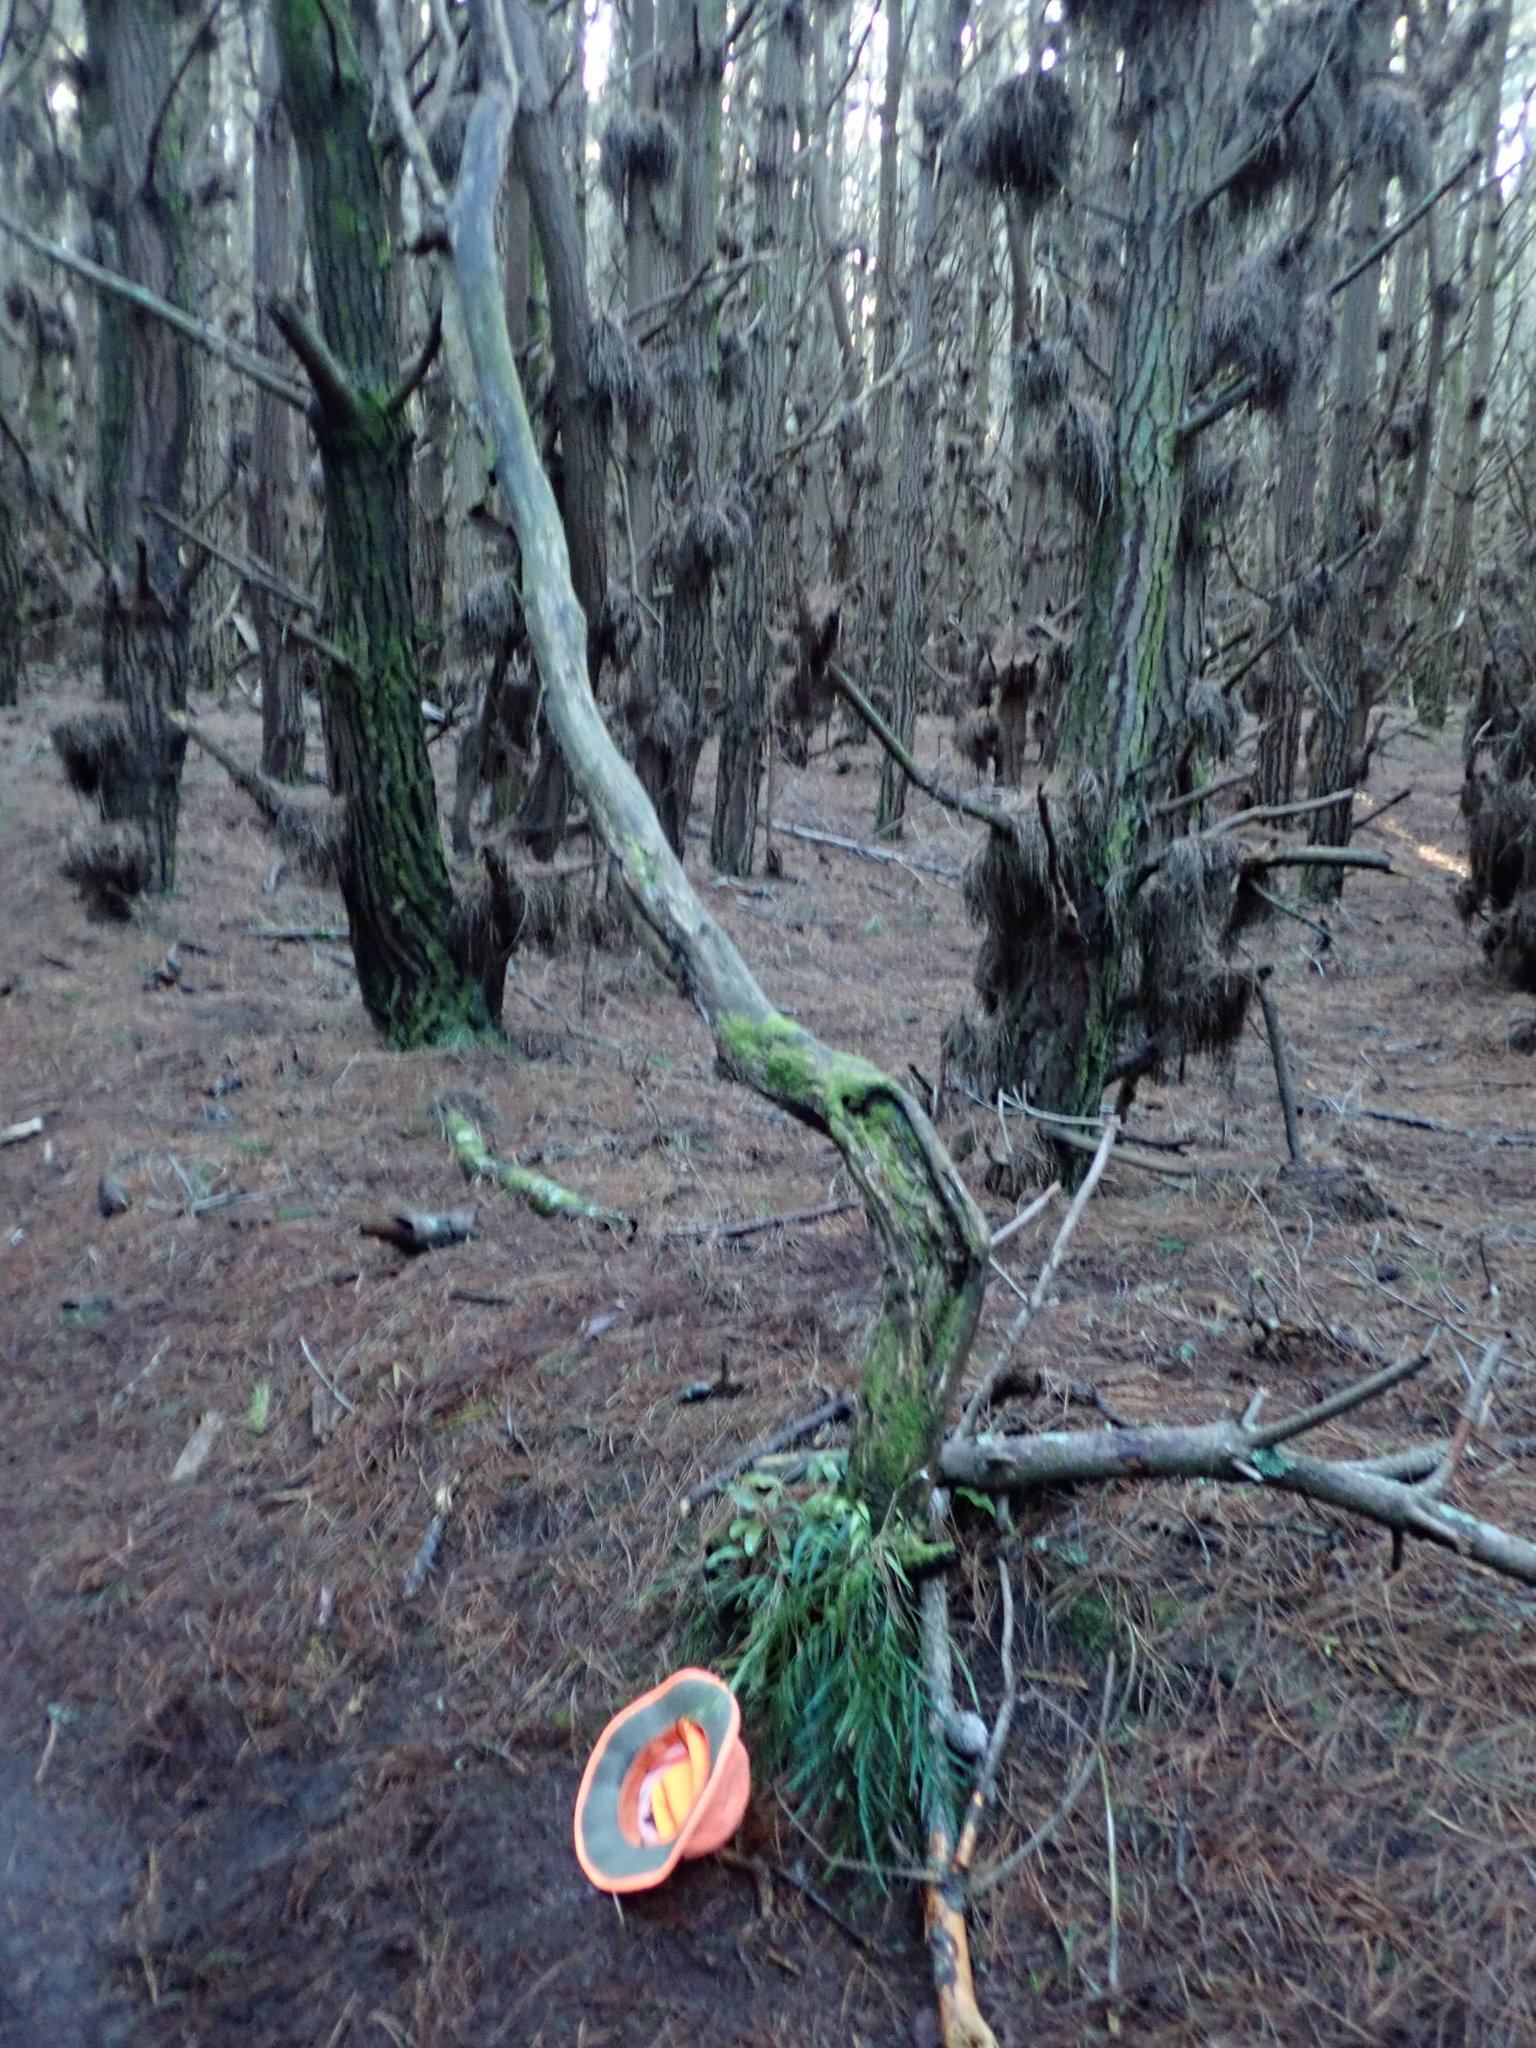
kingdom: Plantae
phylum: Tracheophyta
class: Polypodiopsida
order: Polypodiales
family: Polypodiaceae
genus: Lecanopteris
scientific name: Lecanopteris pustulata
